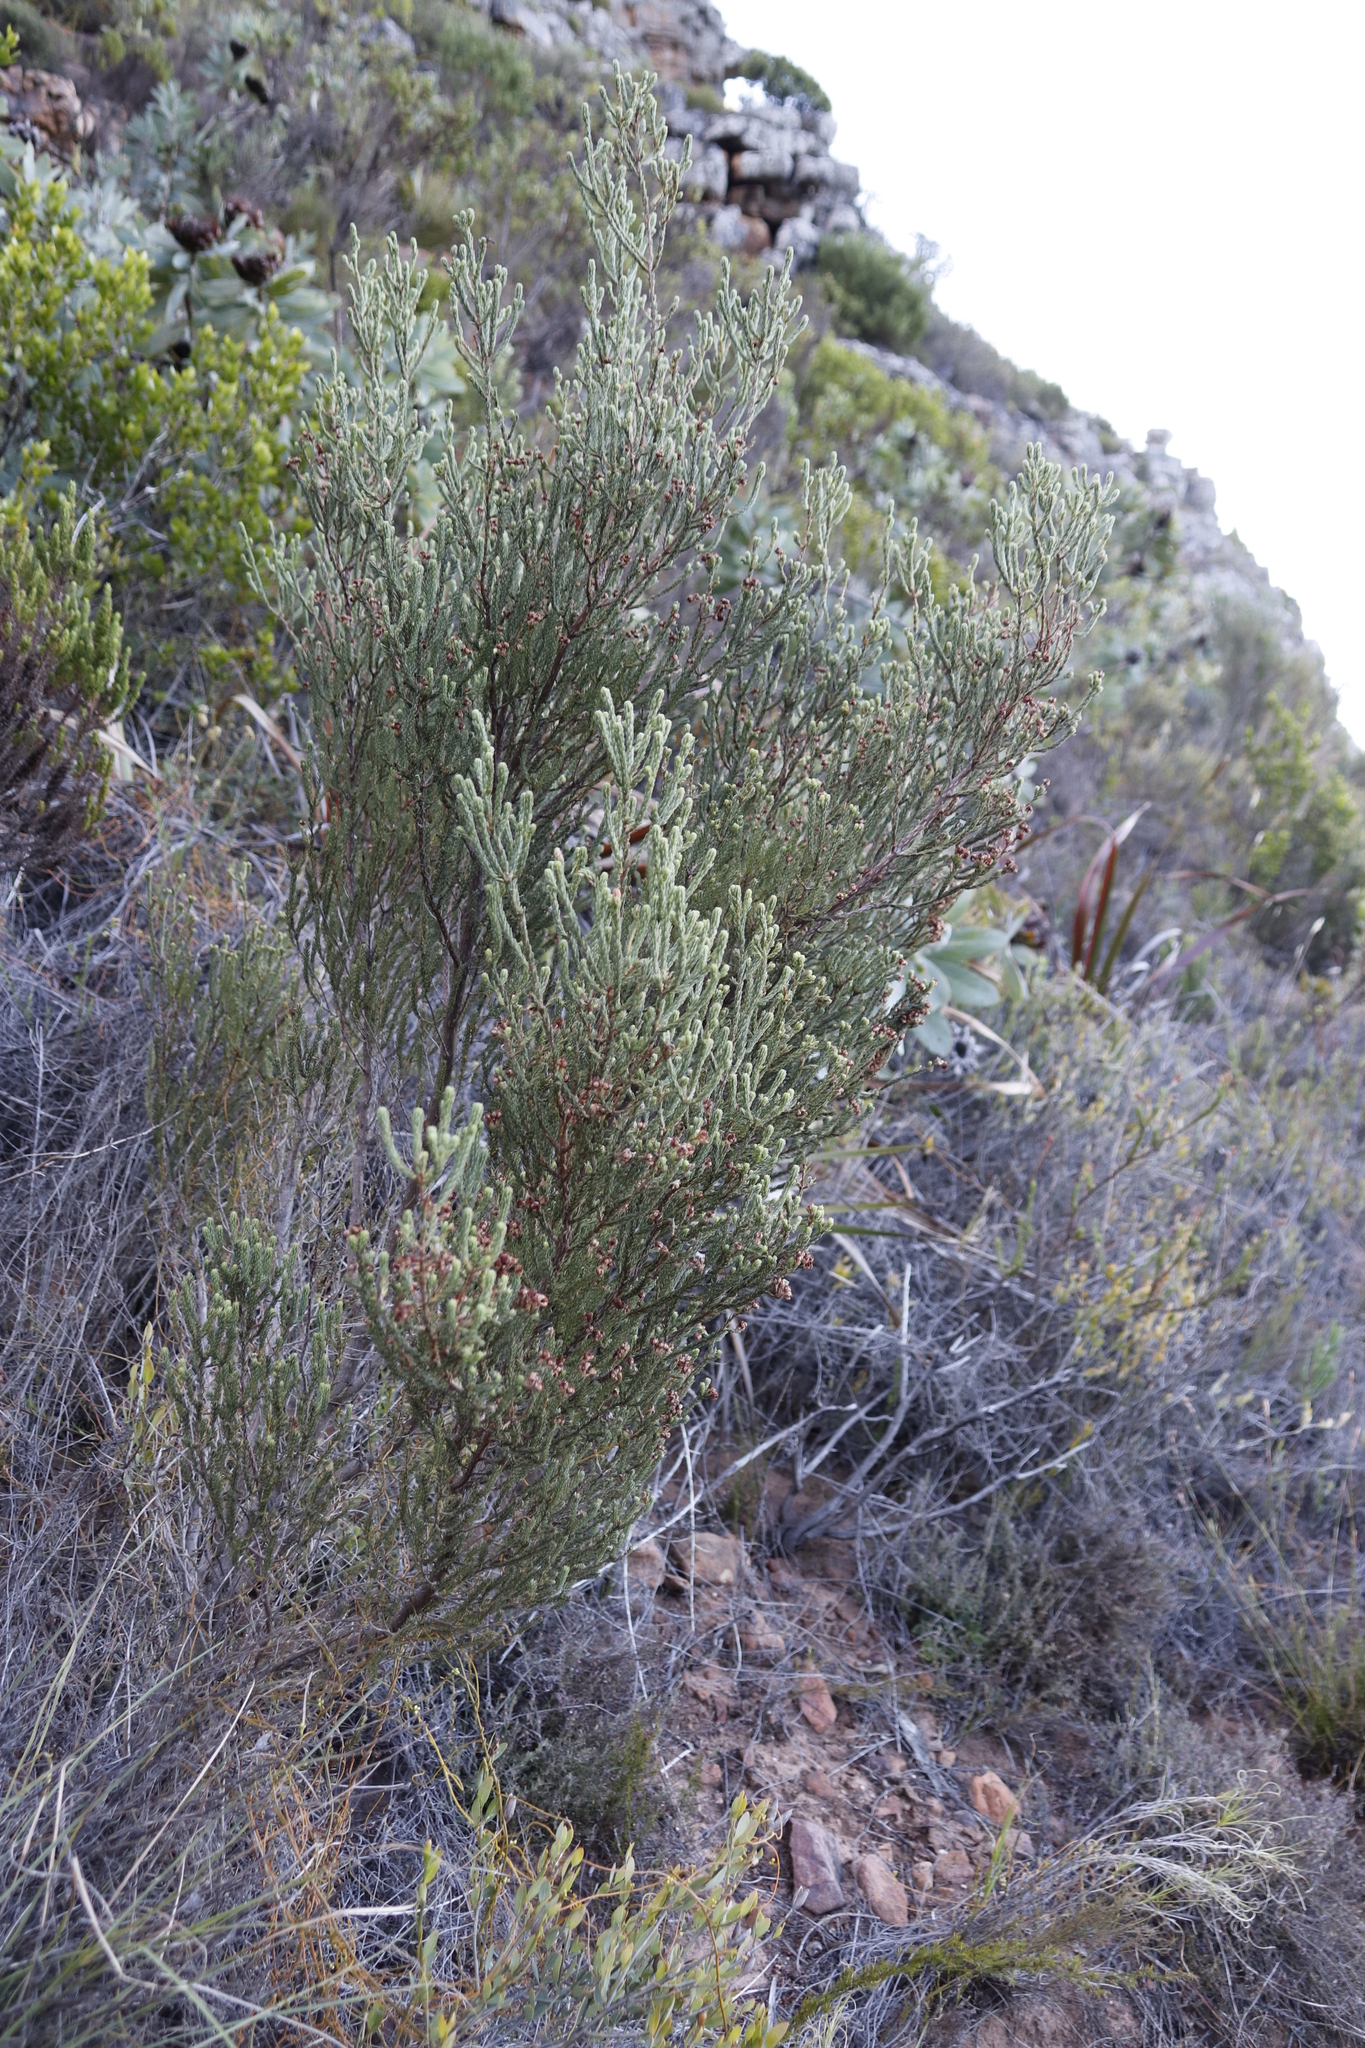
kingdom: Plantae
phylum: Tracheophyta
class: Magnoliopsida
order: Ericales
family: Ericaceae
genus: Erica
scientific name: Erica baccans
